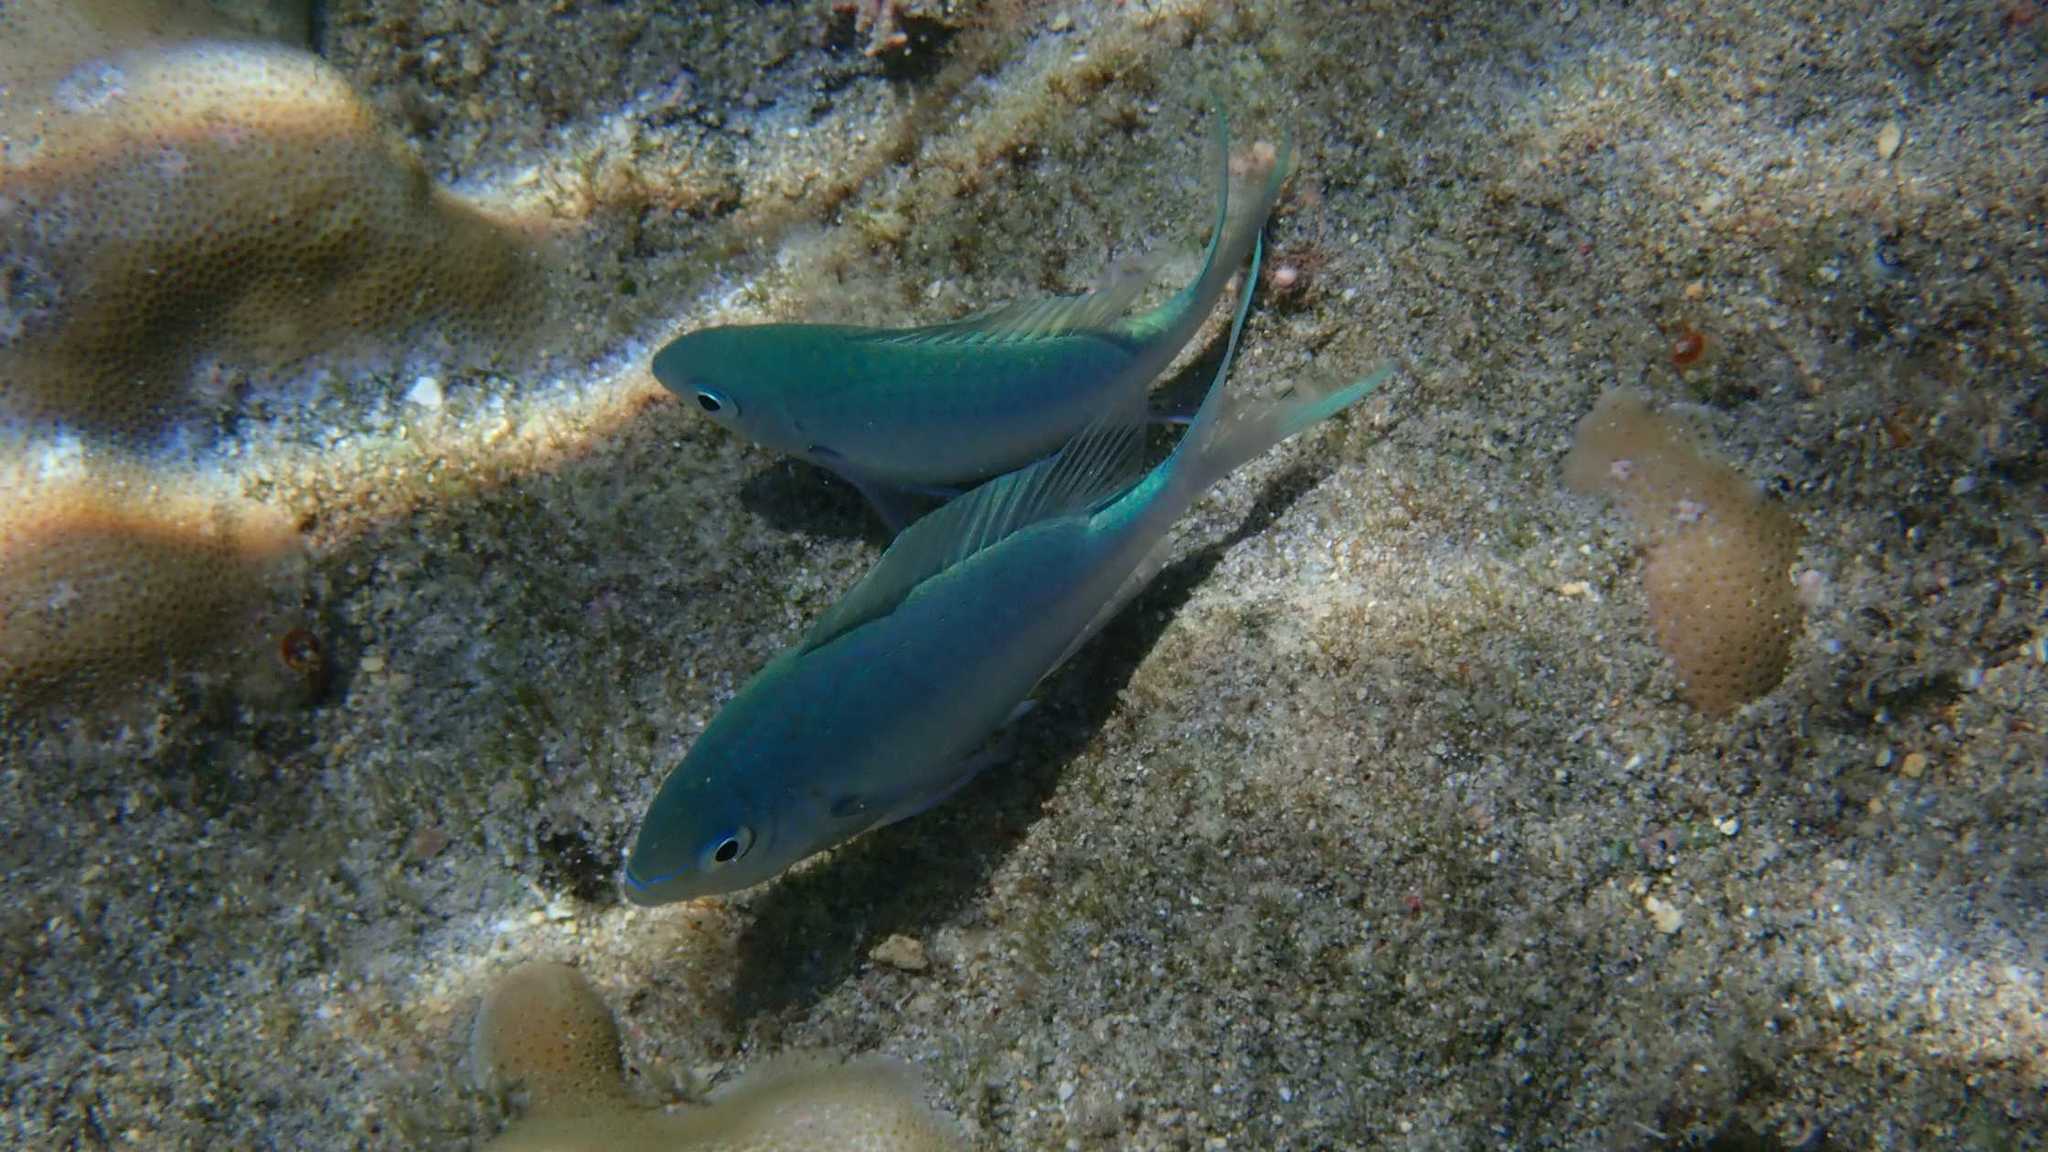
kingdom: Animalia
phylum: Chordata
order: Perciformes
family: Pomacentridae
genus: Chromis
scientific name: Chromis viridis
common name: Blue-green chromis
